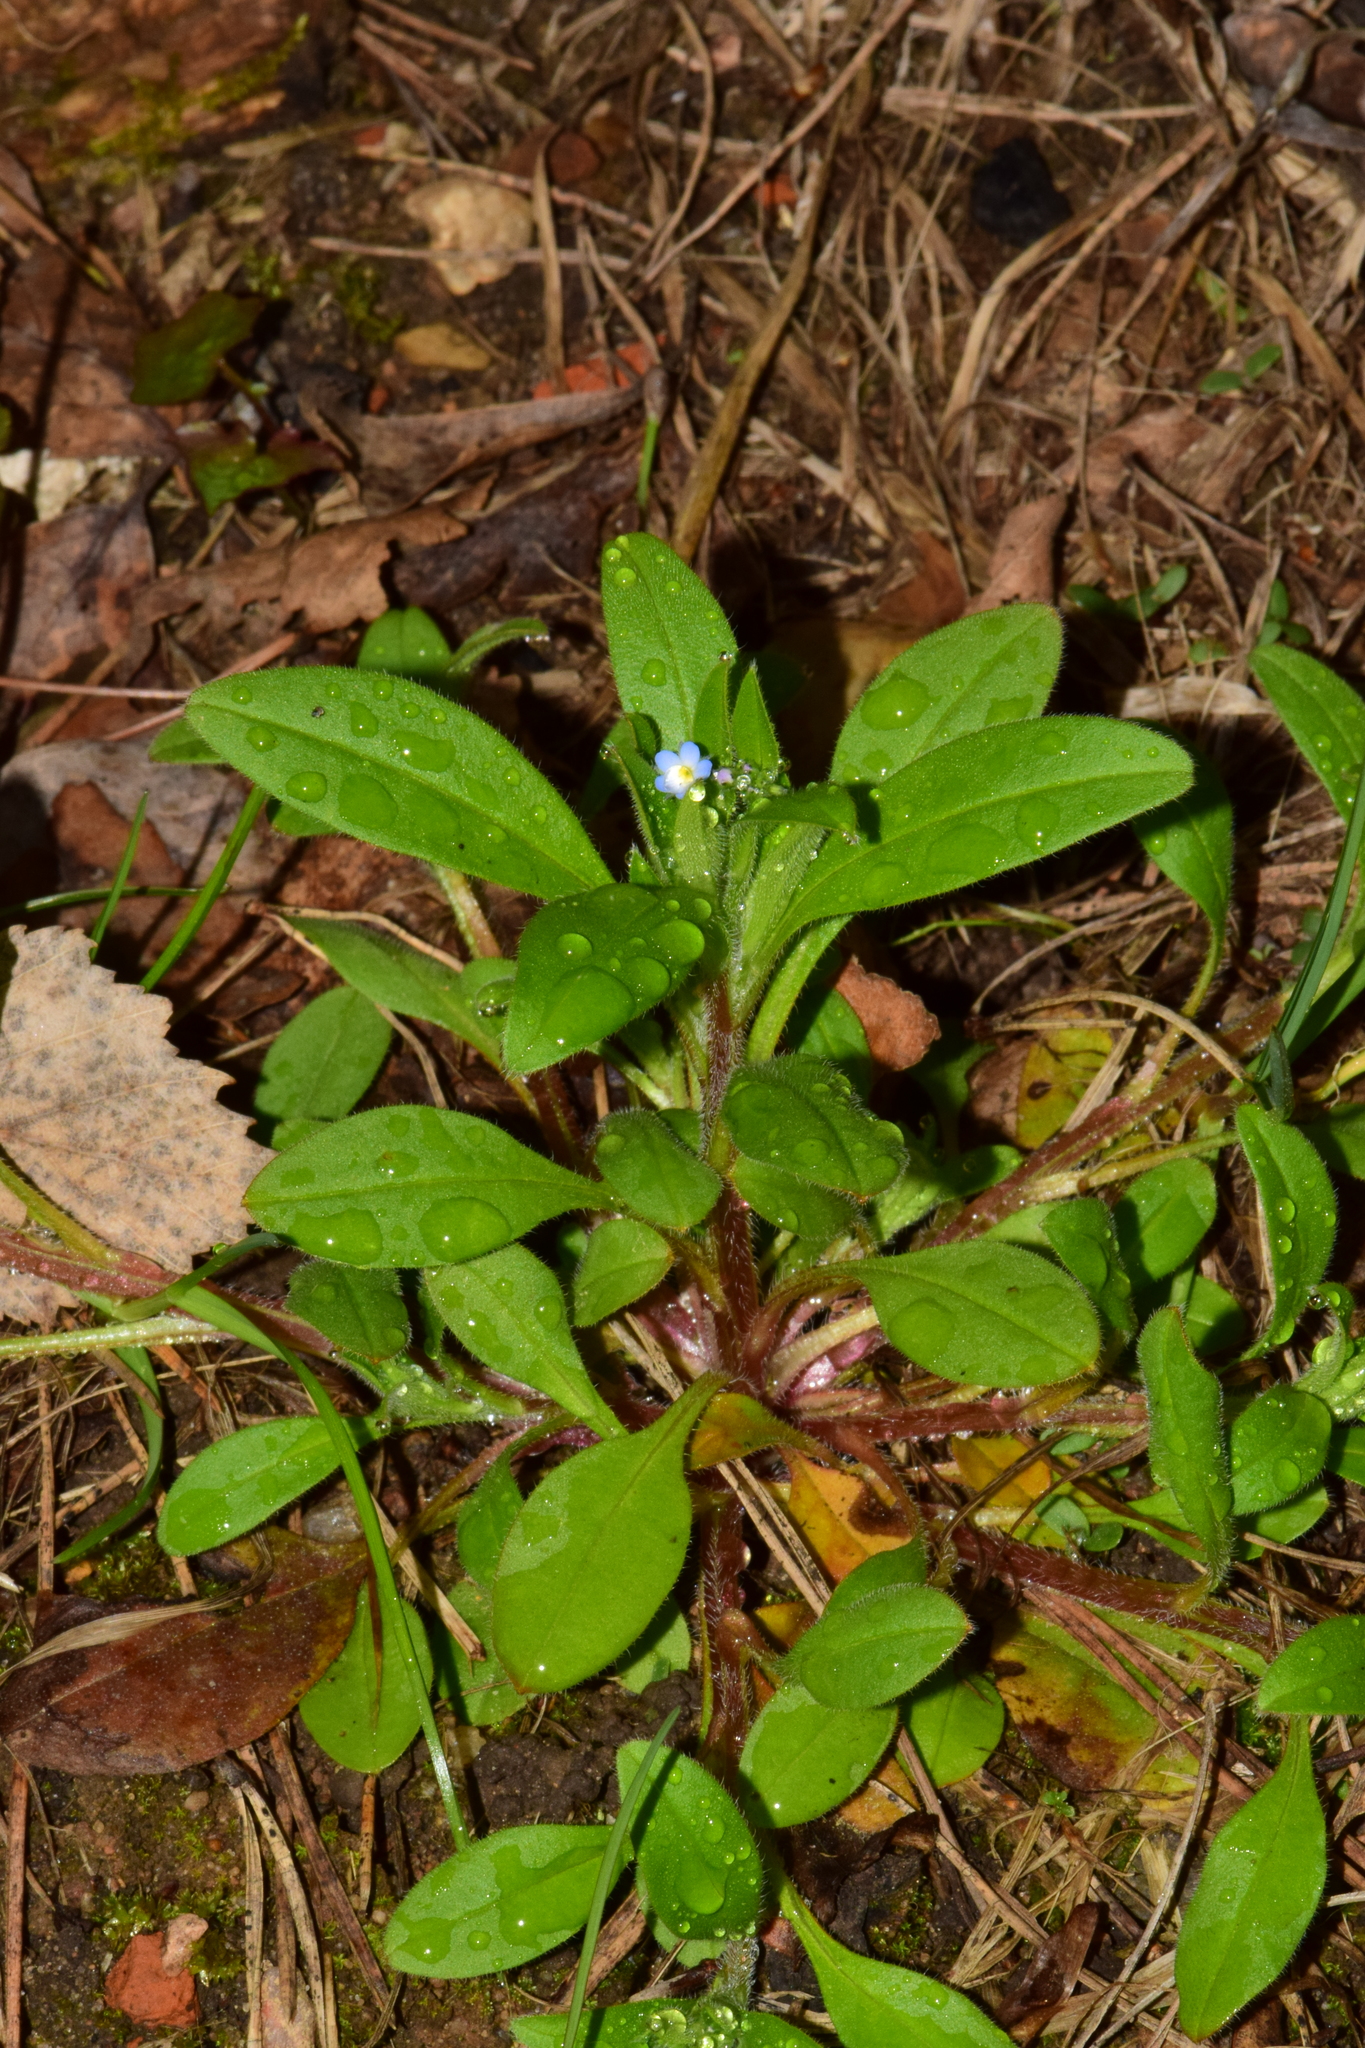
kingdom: Plantae
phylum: Tracheophyta
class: Magnoliopsida
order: Boraginales
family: Boraginaceae
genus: Myosotis
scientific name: Myosotis sparsiflora
